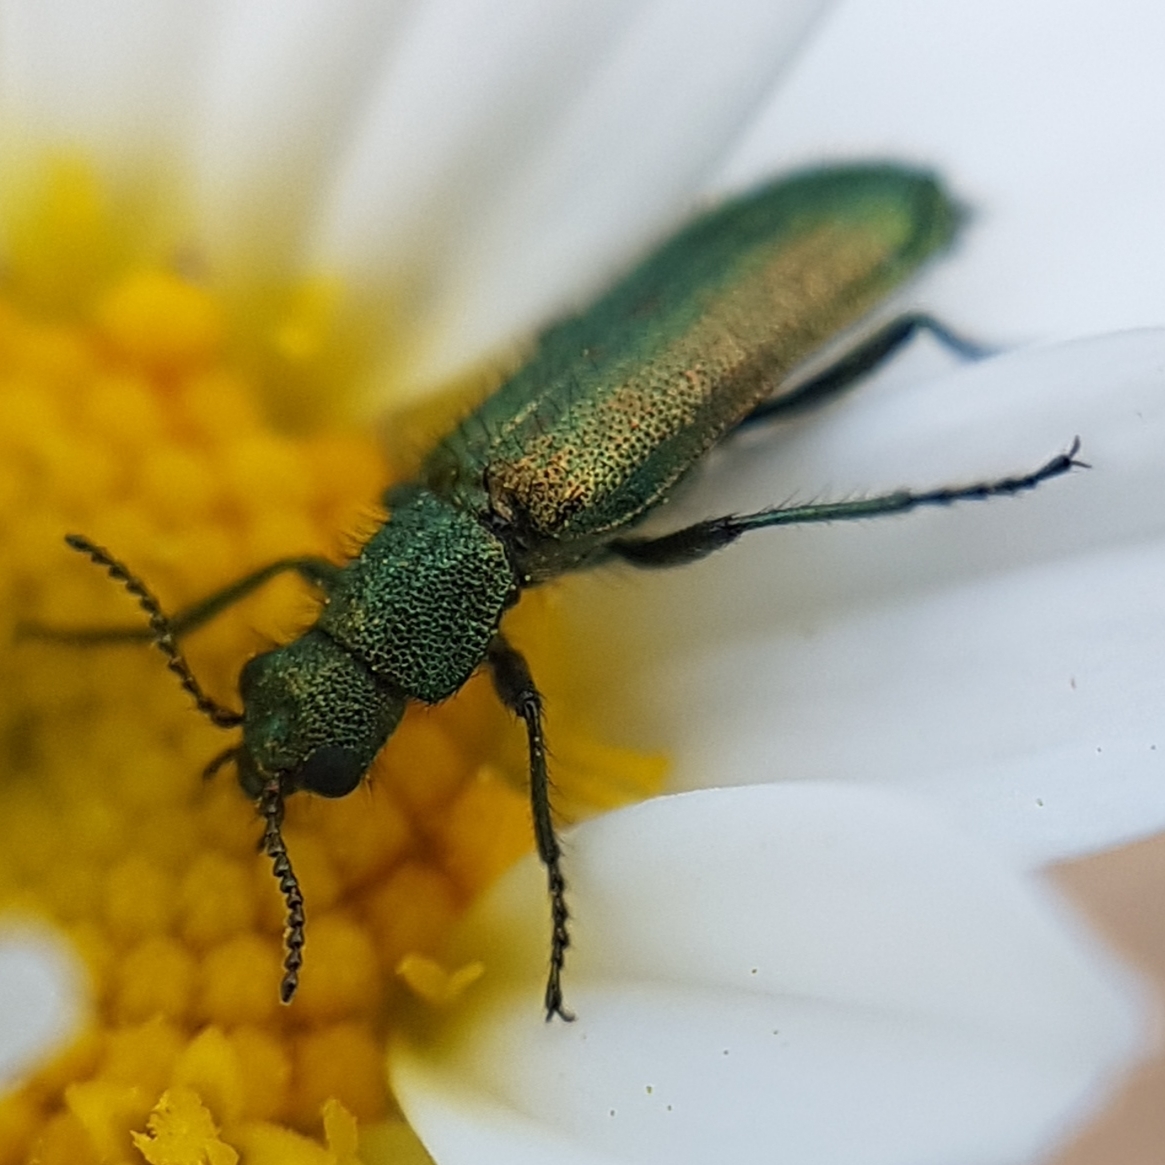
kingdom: Animalia
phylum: Arthropoda
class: Insecta
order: Coleoptera
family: Dasytidae
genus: Psilothrix
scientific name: Psilothrix viridicoerulea
